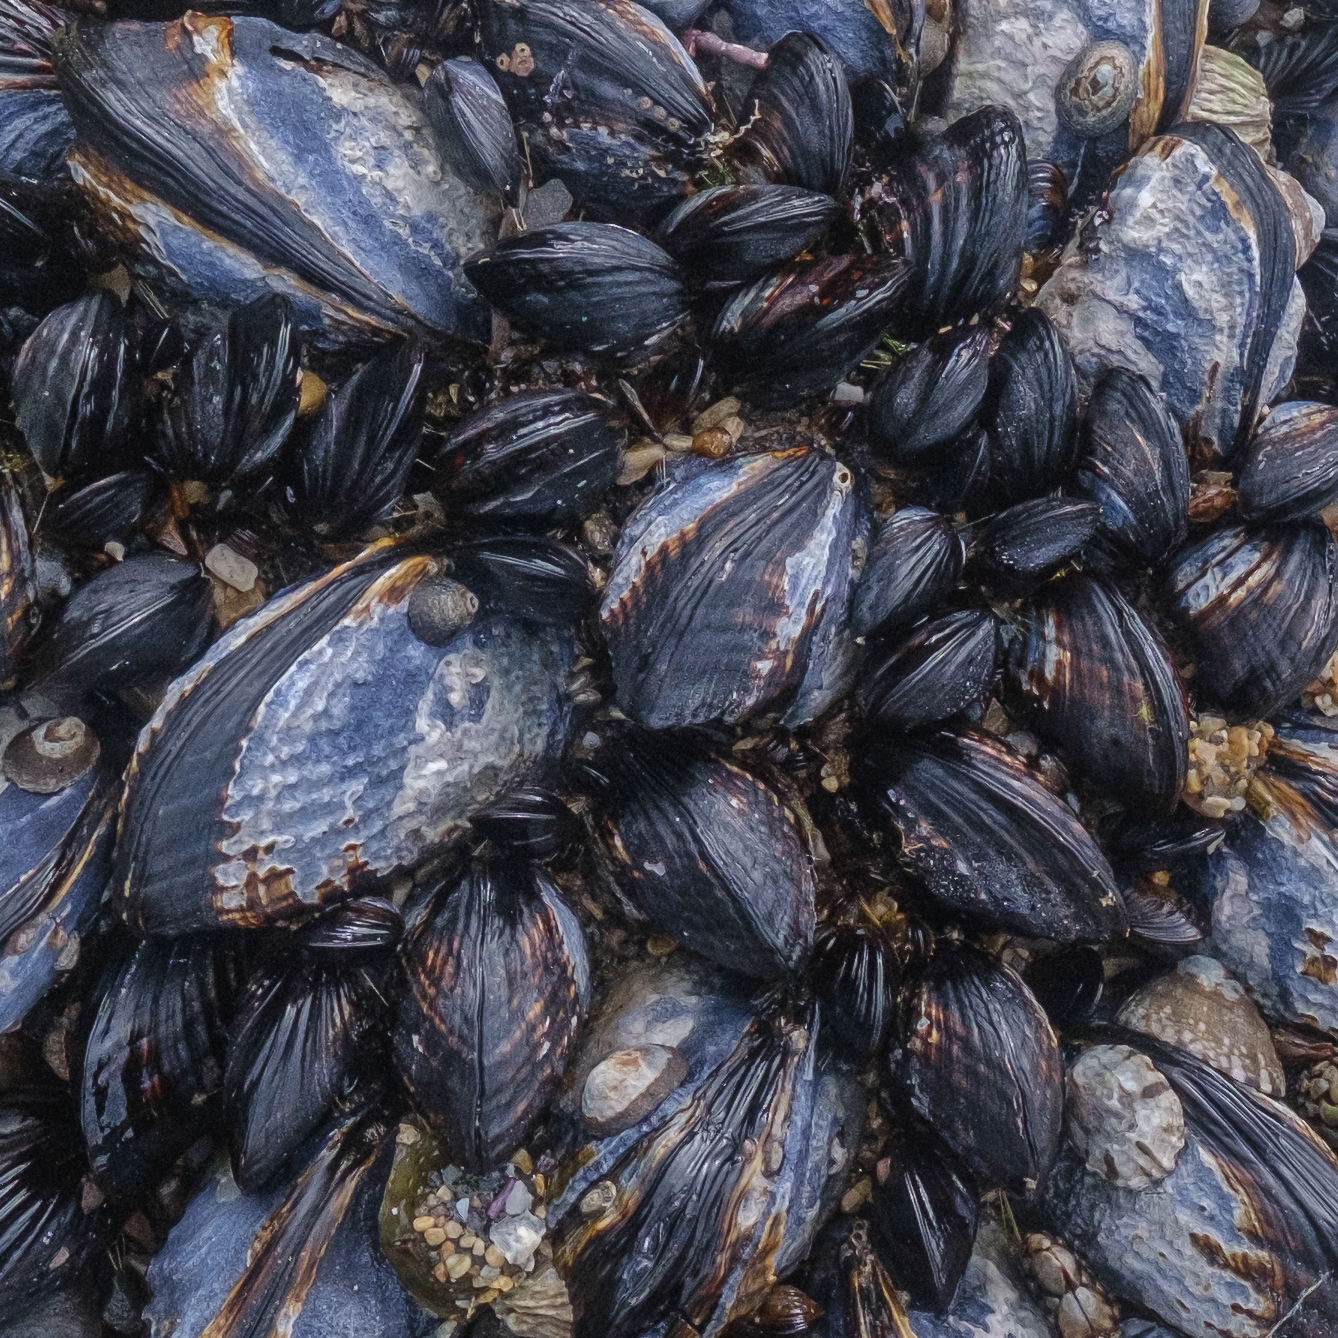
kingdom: Animalia
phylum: Mollusca
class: Bivalvia
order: Mytilida
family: Mytilidae
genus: Mytilus
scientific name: Mytilus californianus
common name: California mussel
